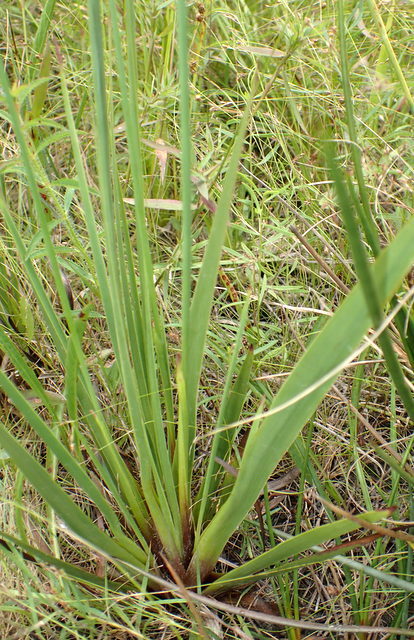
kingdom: Plantae
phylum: Tracheophyta
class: Liliopsida
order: Poales
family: Xyridaceae
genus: Xyris
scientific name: Xyris ambigua
